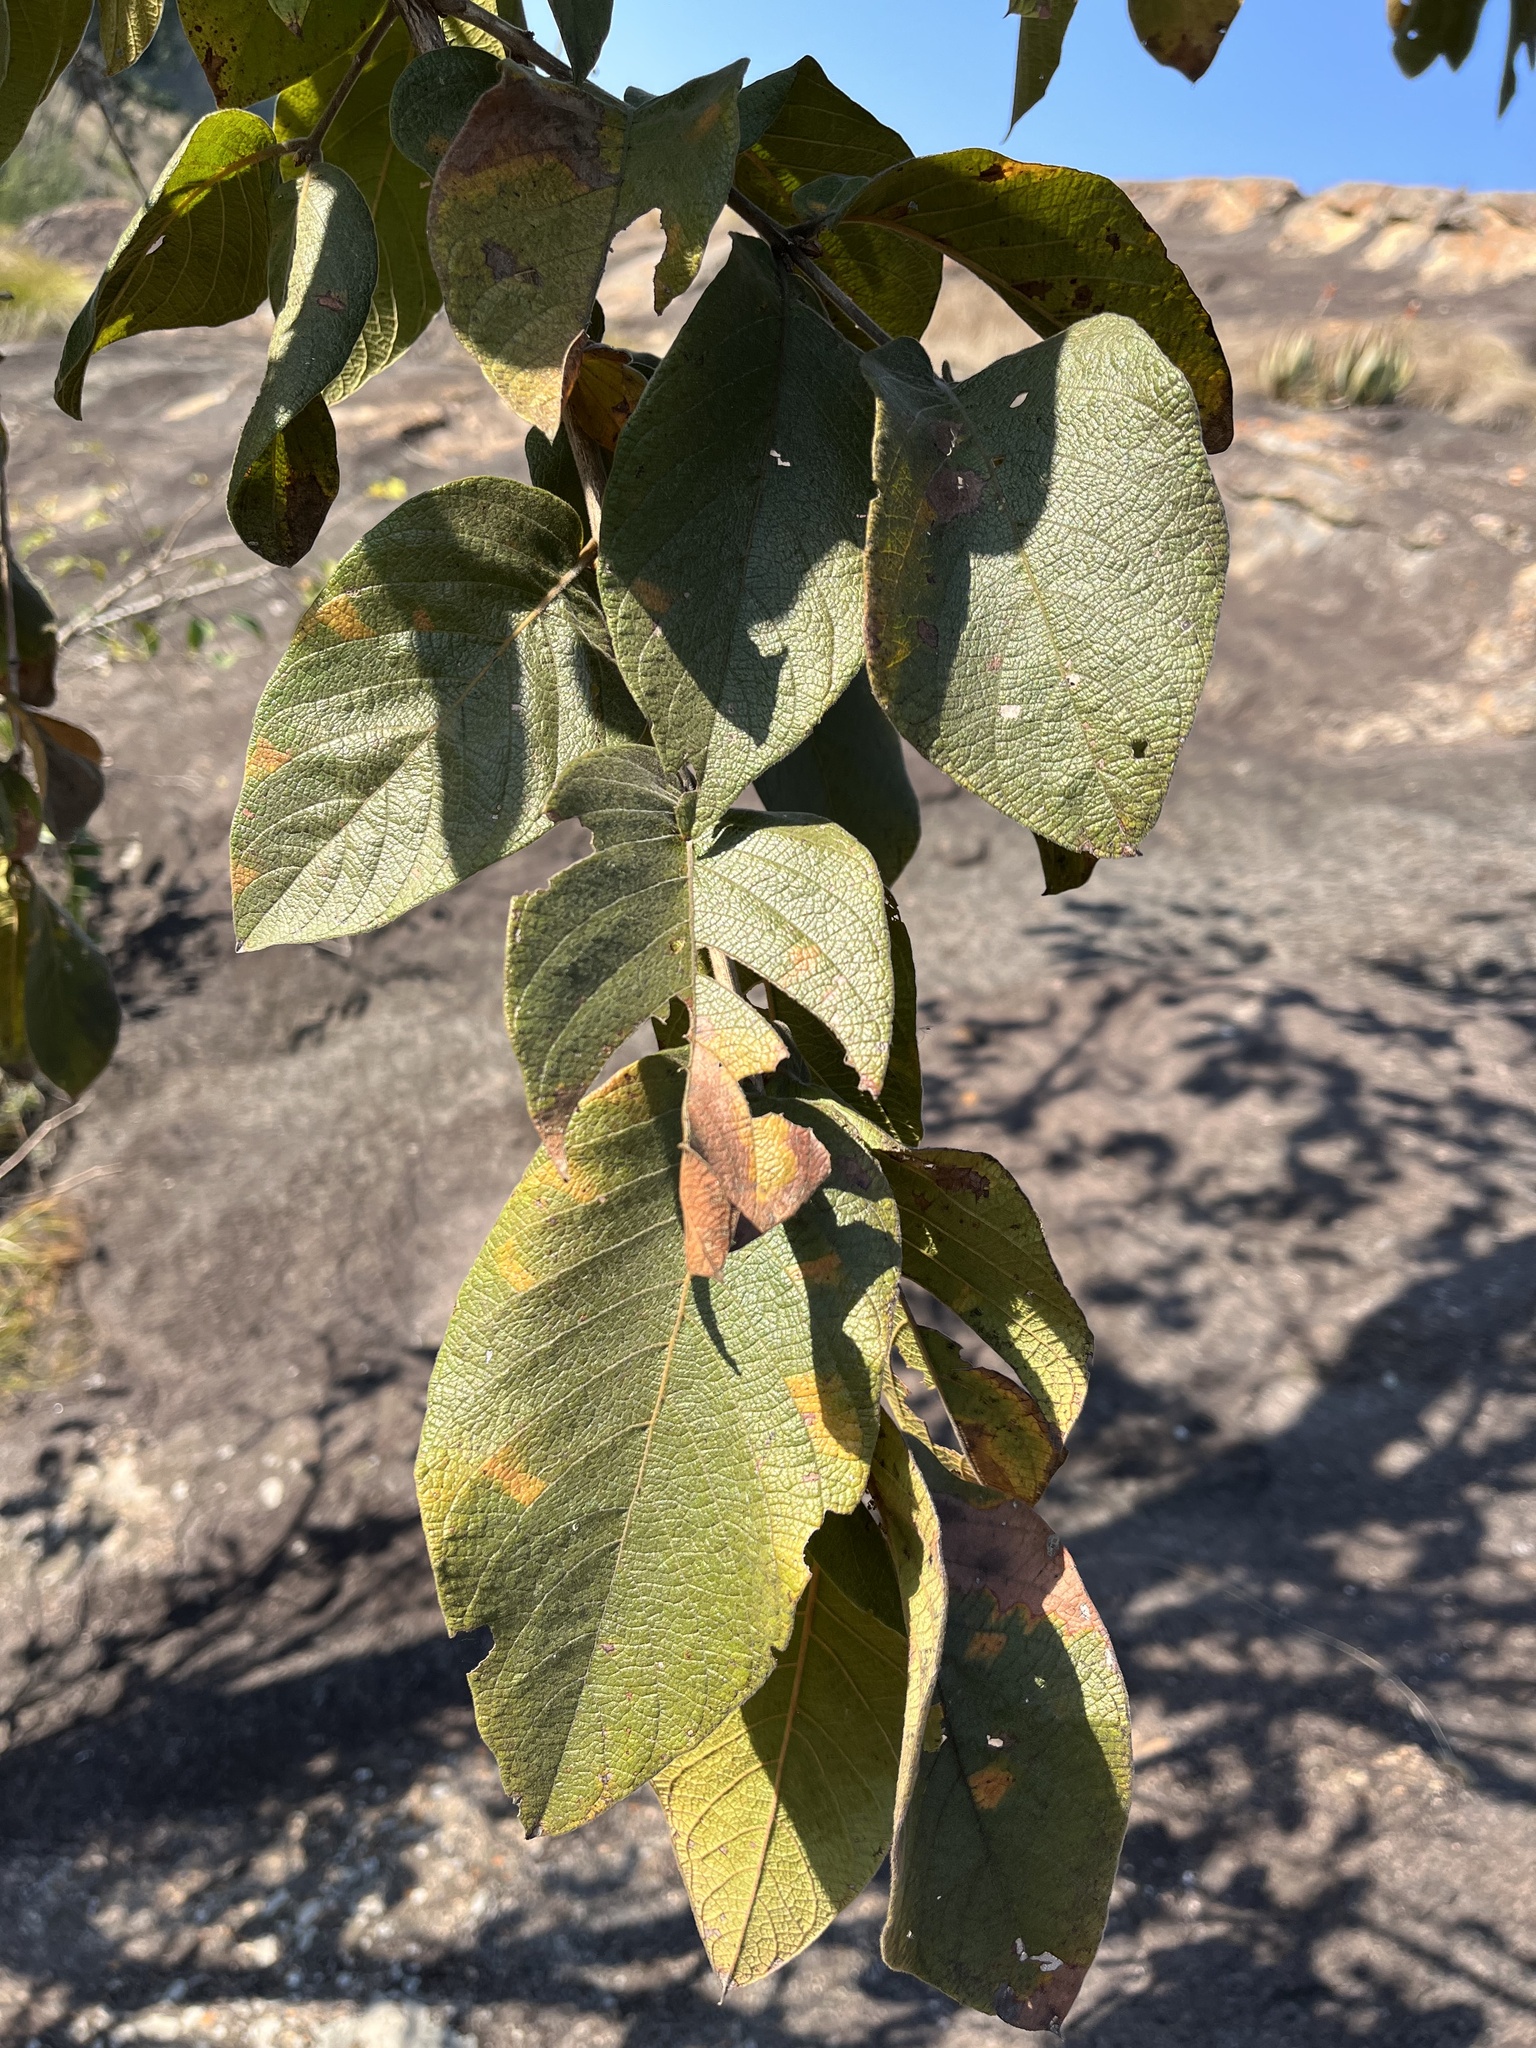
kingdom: Plantae
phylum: Tracheophyta
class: Magnoliopsida
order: Myrtales
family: Combretaceae
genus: Combretum
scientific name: Combretum molle
